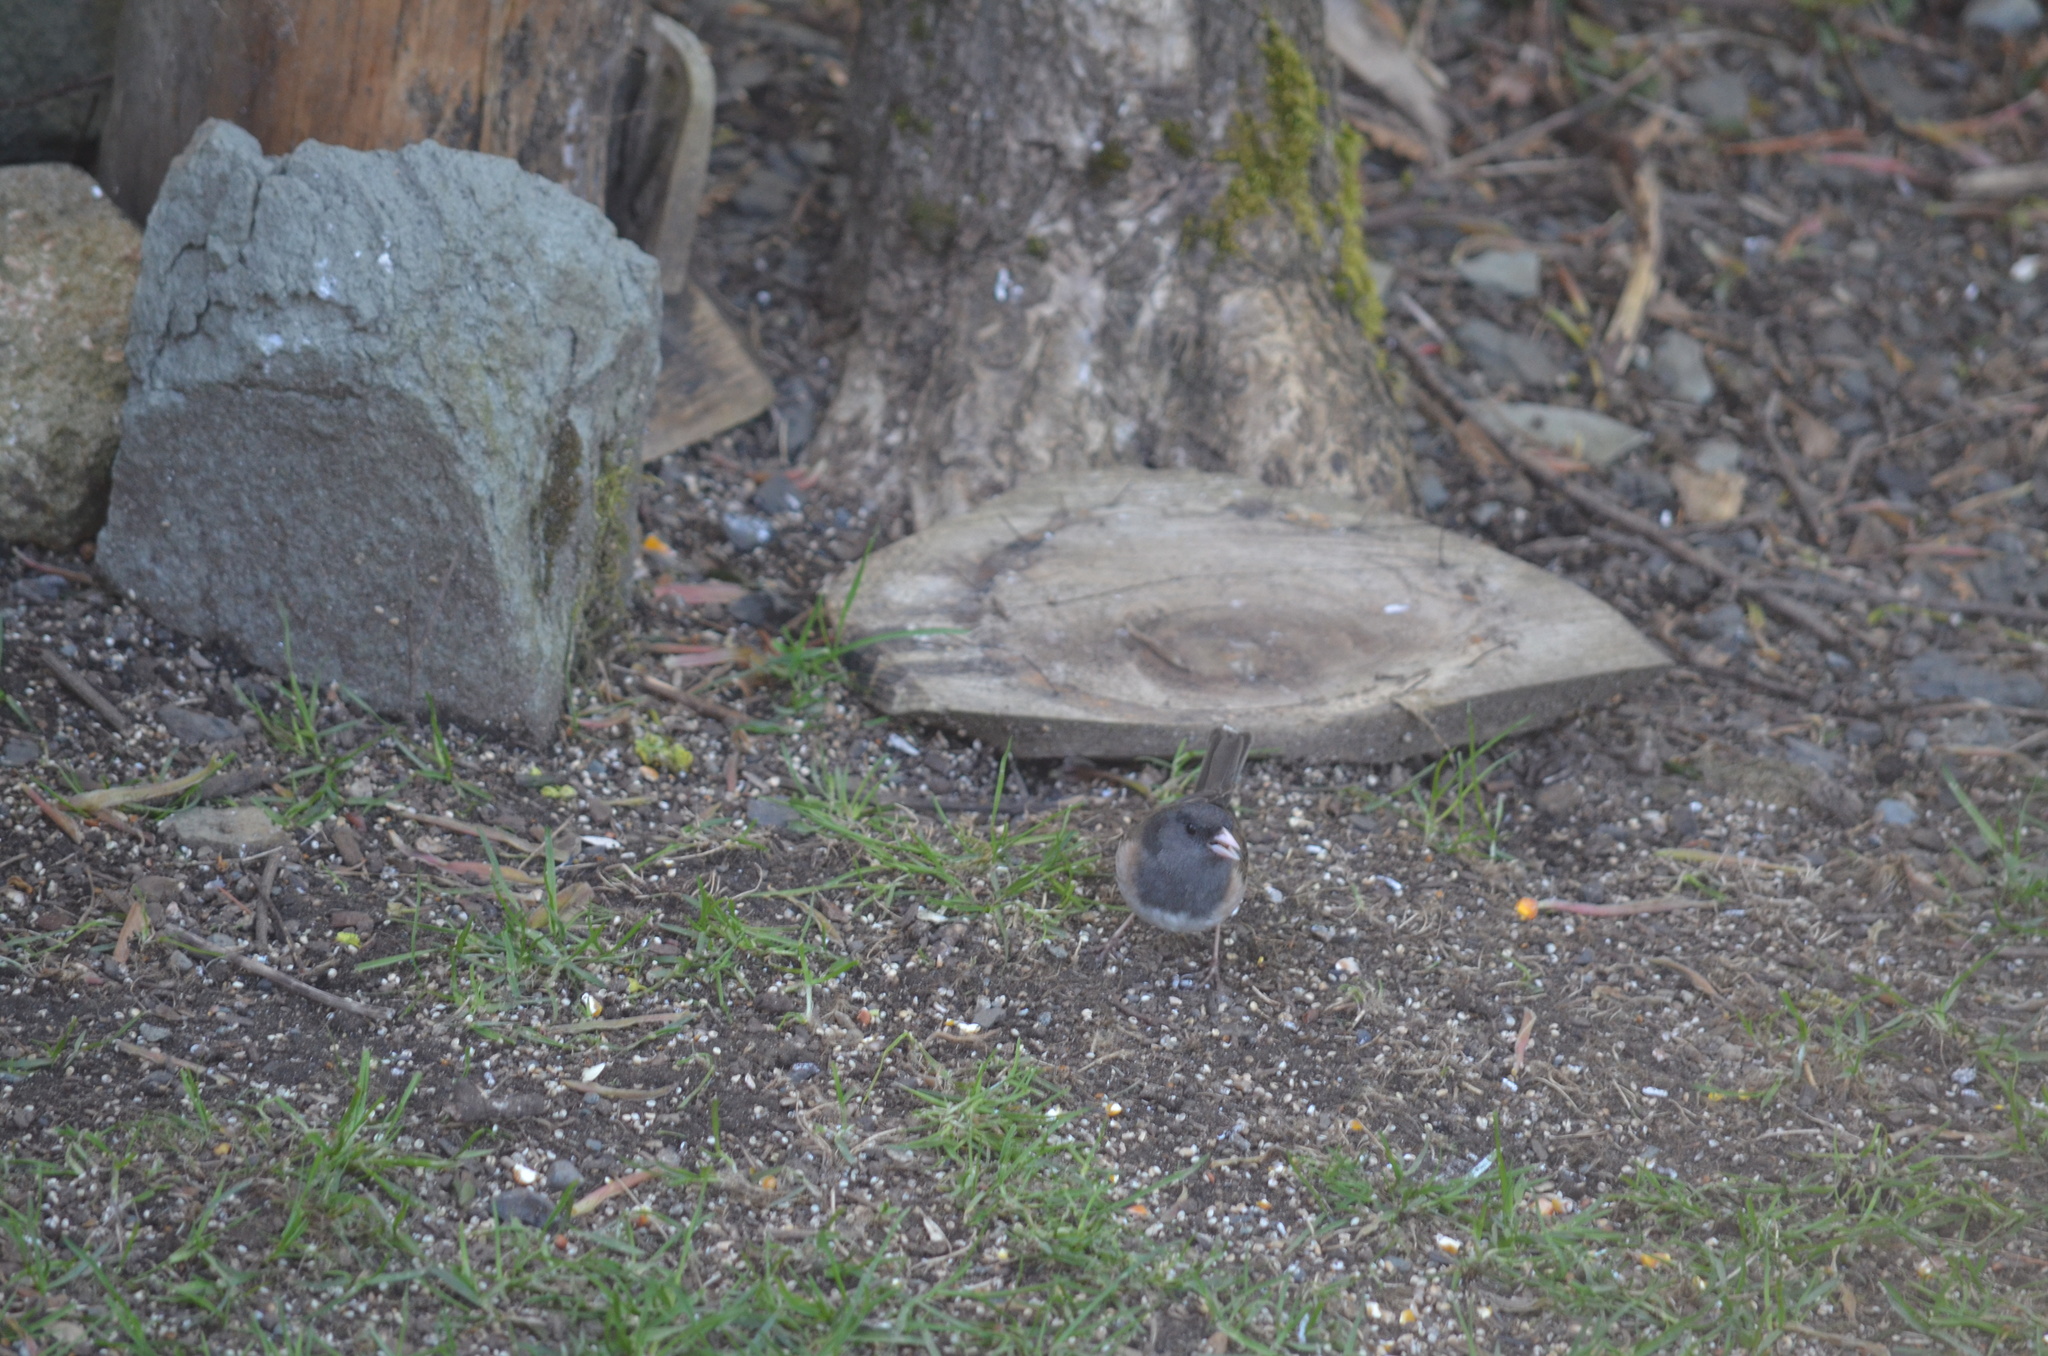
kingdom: Animalia
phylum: Chordata
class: Aves
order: Passeriformes
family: Passerellidae
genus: Junco
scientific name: Junco hyemalis
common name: Dark-eyed junco
